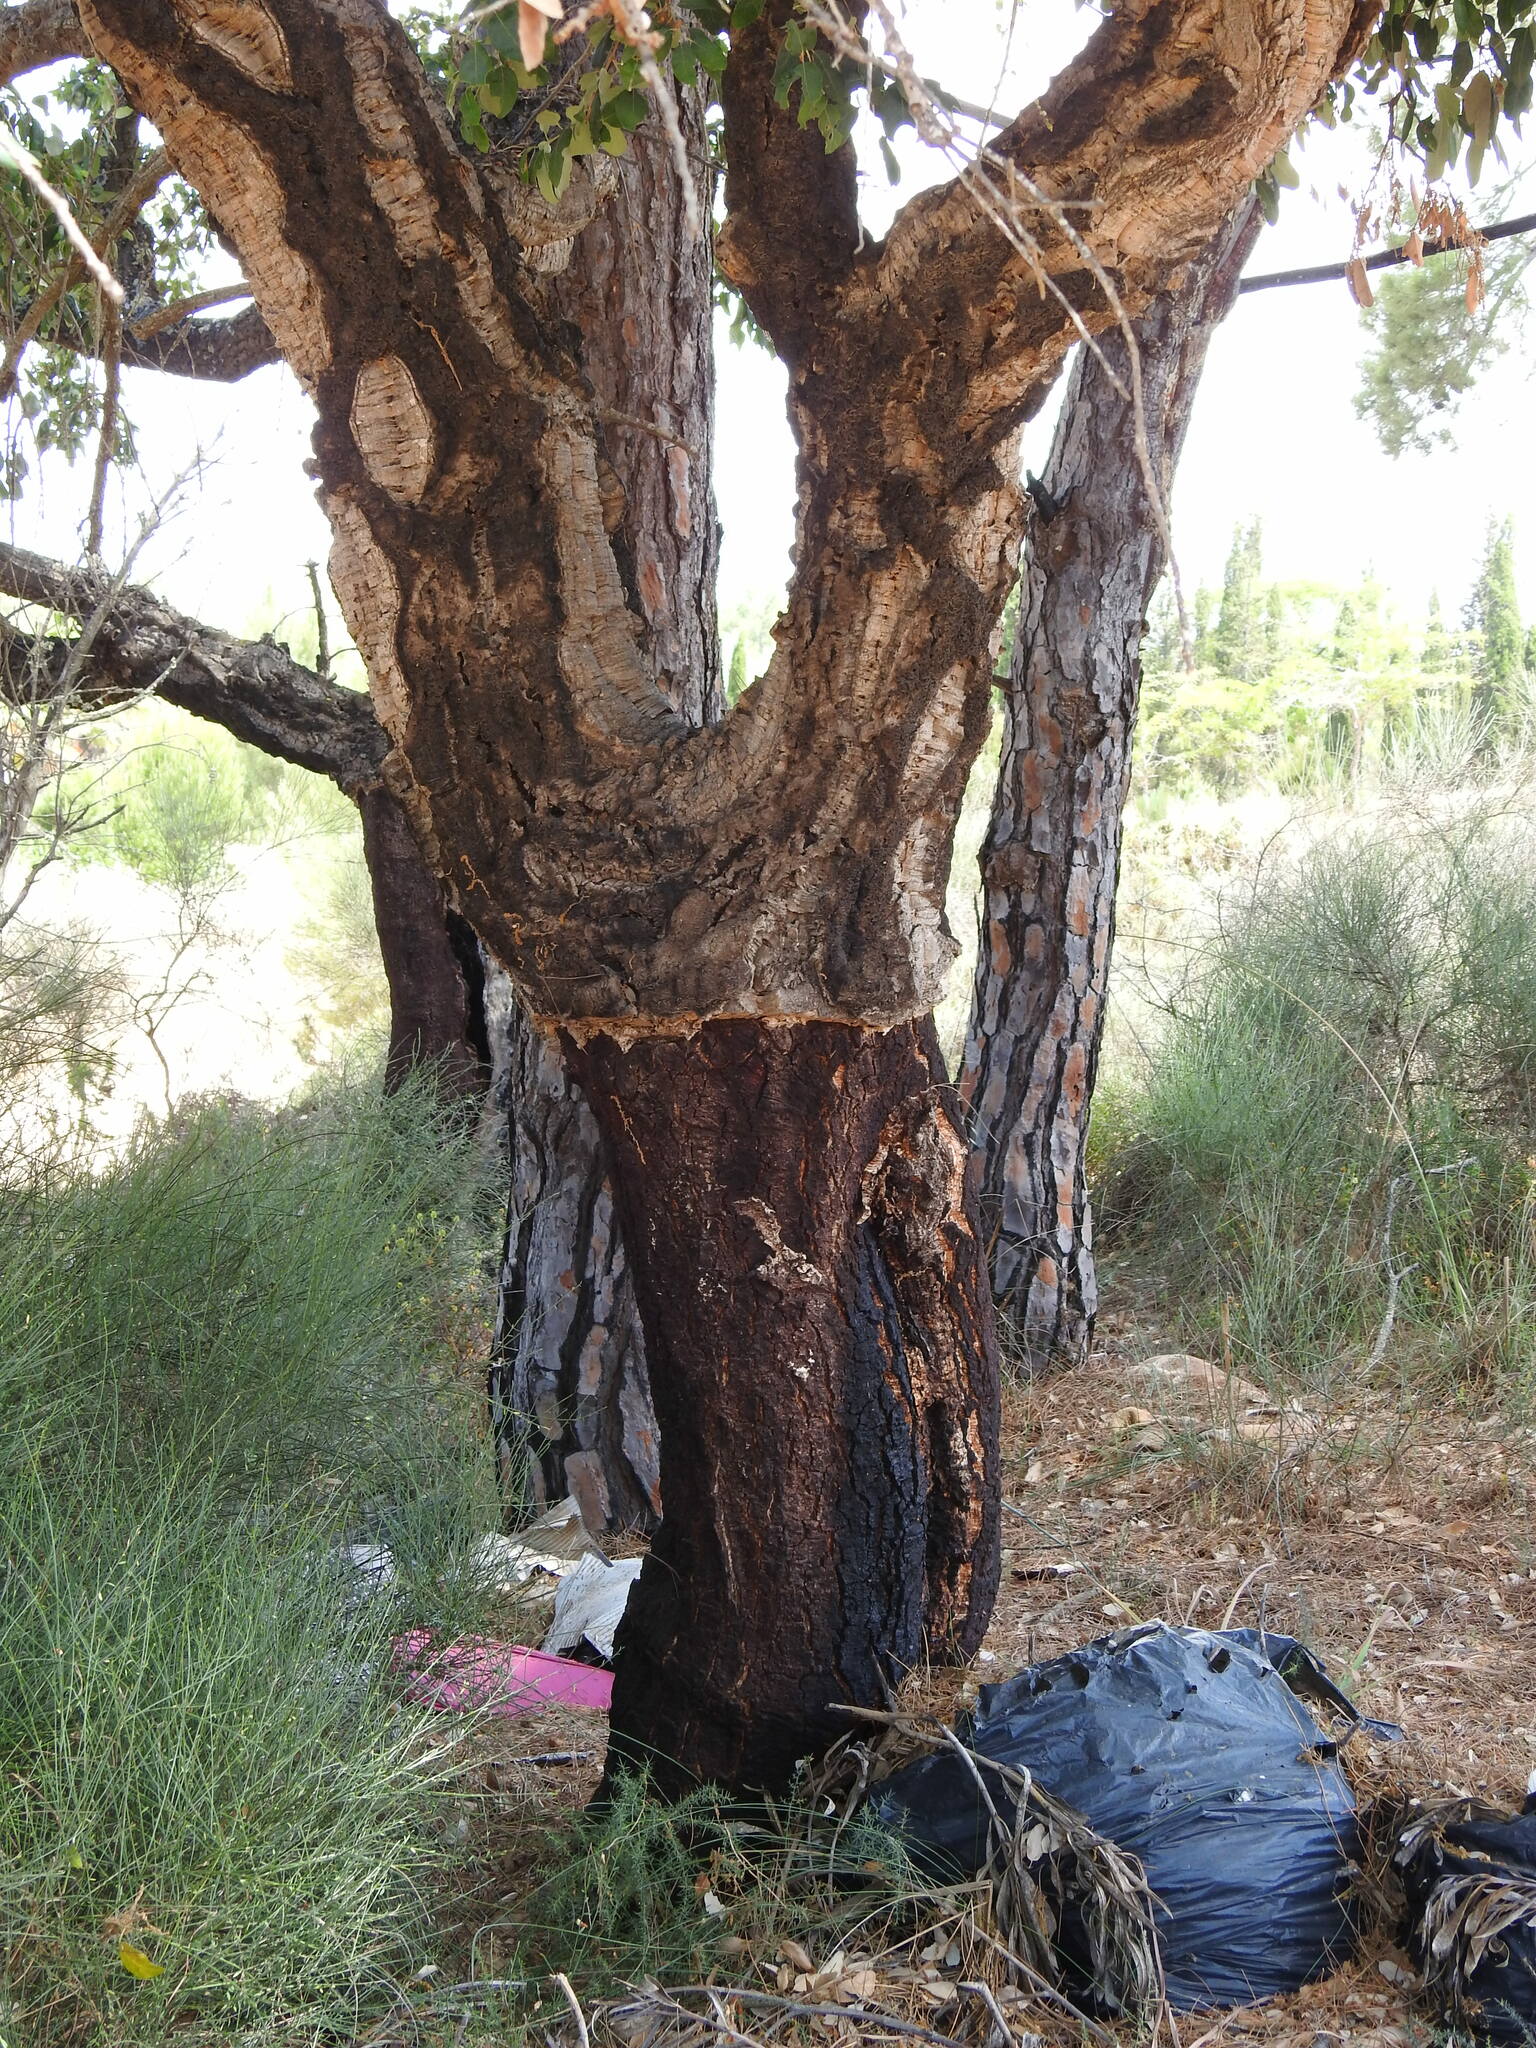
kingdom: Plantae
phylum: Tracheophyta
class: Magnoliopsida
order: Fagales
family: Fagaceae
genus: Quercus
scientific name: Quercus suber
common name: Cork oak
